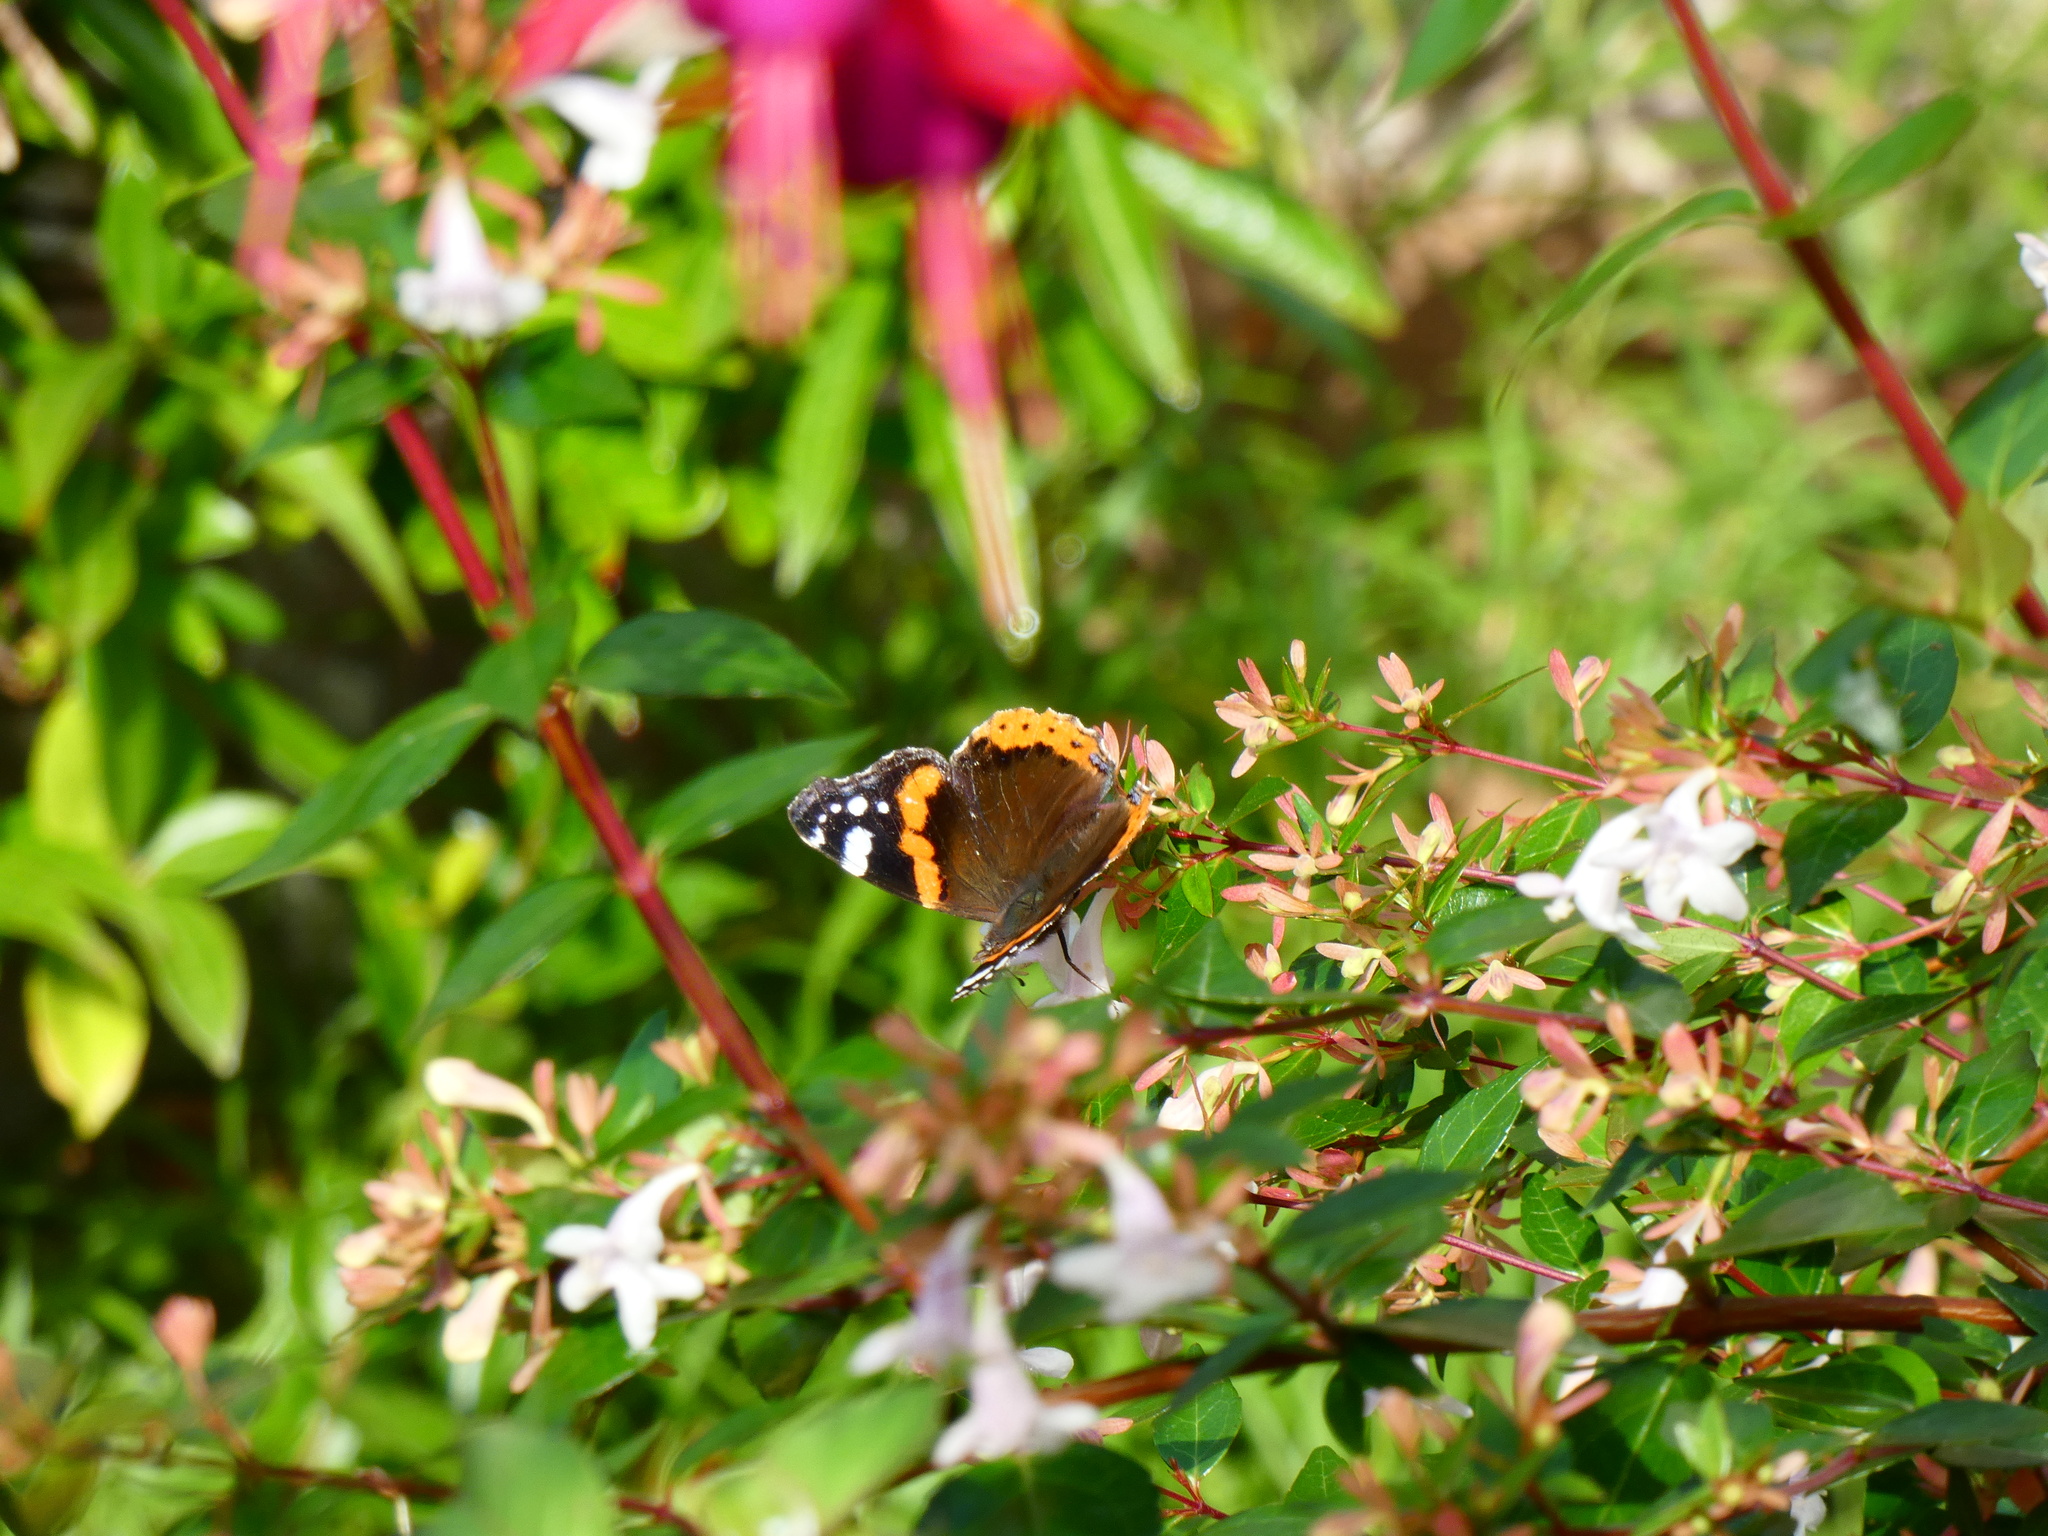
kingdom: Animalia
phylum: Arthropoda
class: Insecta
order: Lepidoptera
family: Nymphalidae
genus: Vanessa
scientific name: Vanessa atalanta
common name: Red admiral
